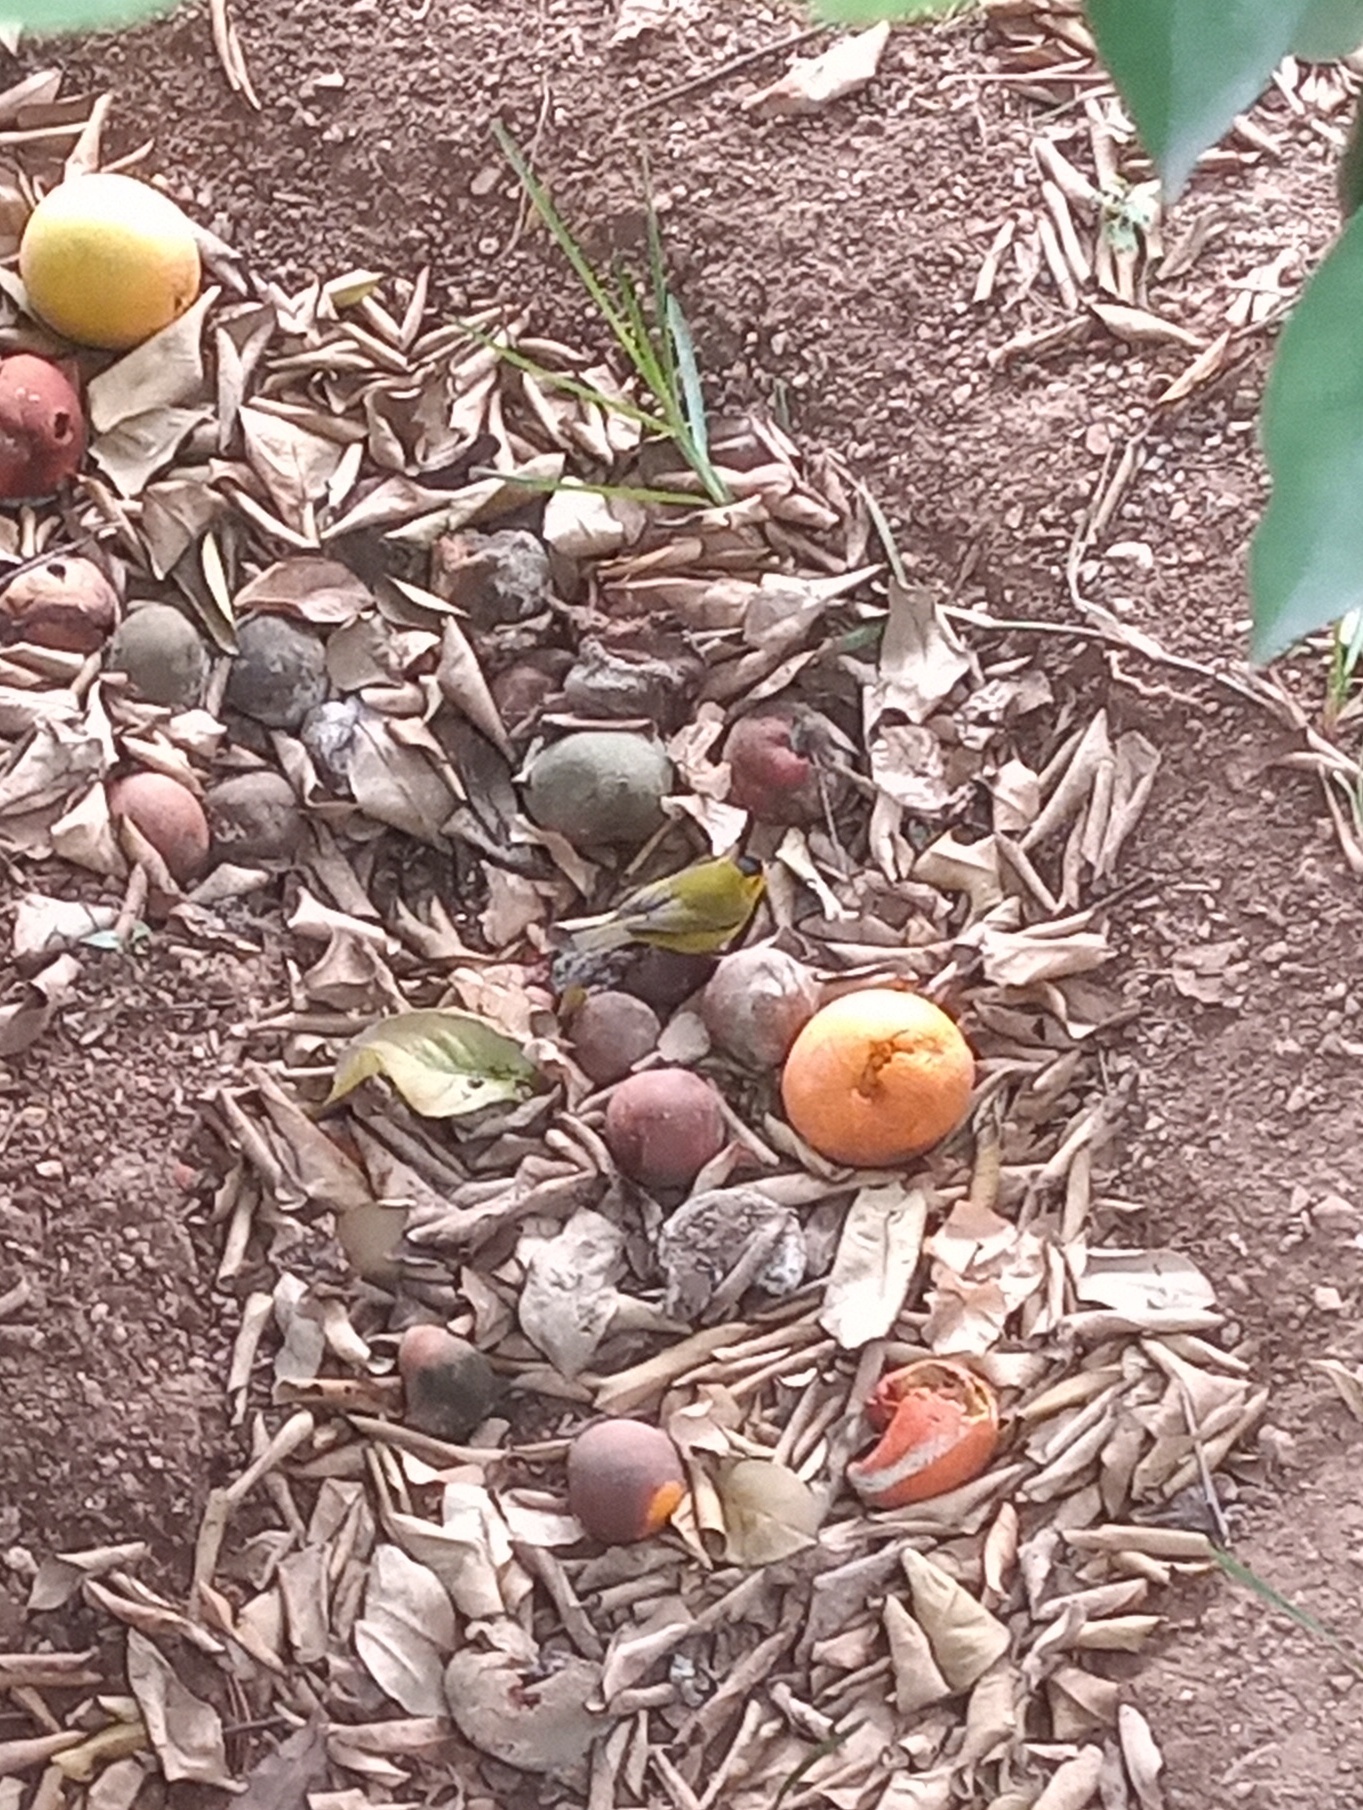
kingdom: Animalia
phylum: Chordata
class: Aves
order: Passeriformes
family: Parulidae
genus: Cardellina
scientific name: Cardellina pusilla
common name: Wilson's warbler
